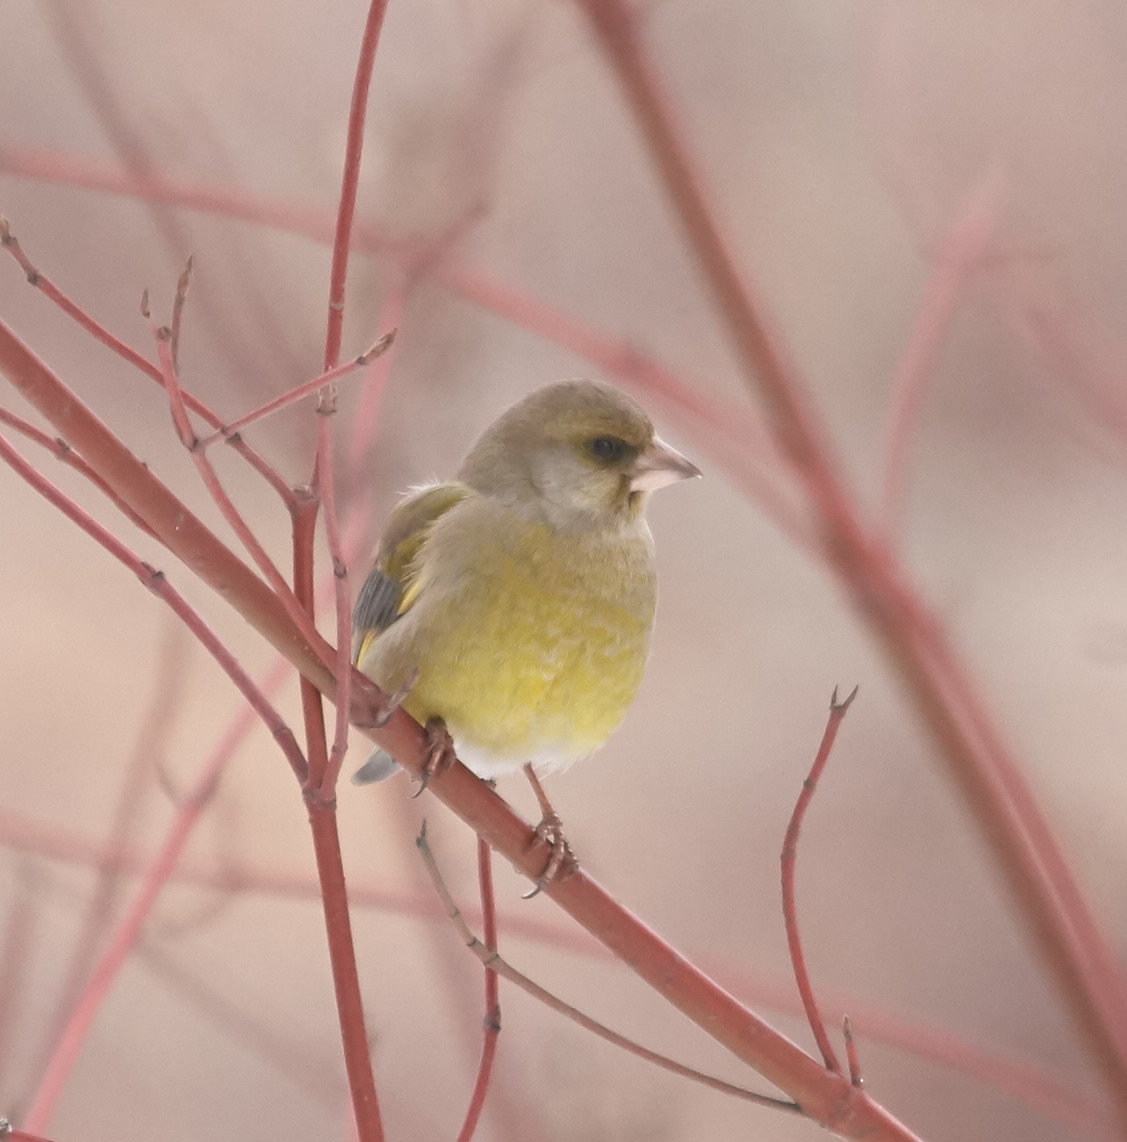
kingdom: Plantae
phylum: Tracheophyta
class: Liliopsida
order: Poales
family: Poaceae
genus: Chloris
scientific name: Chloris chloris
